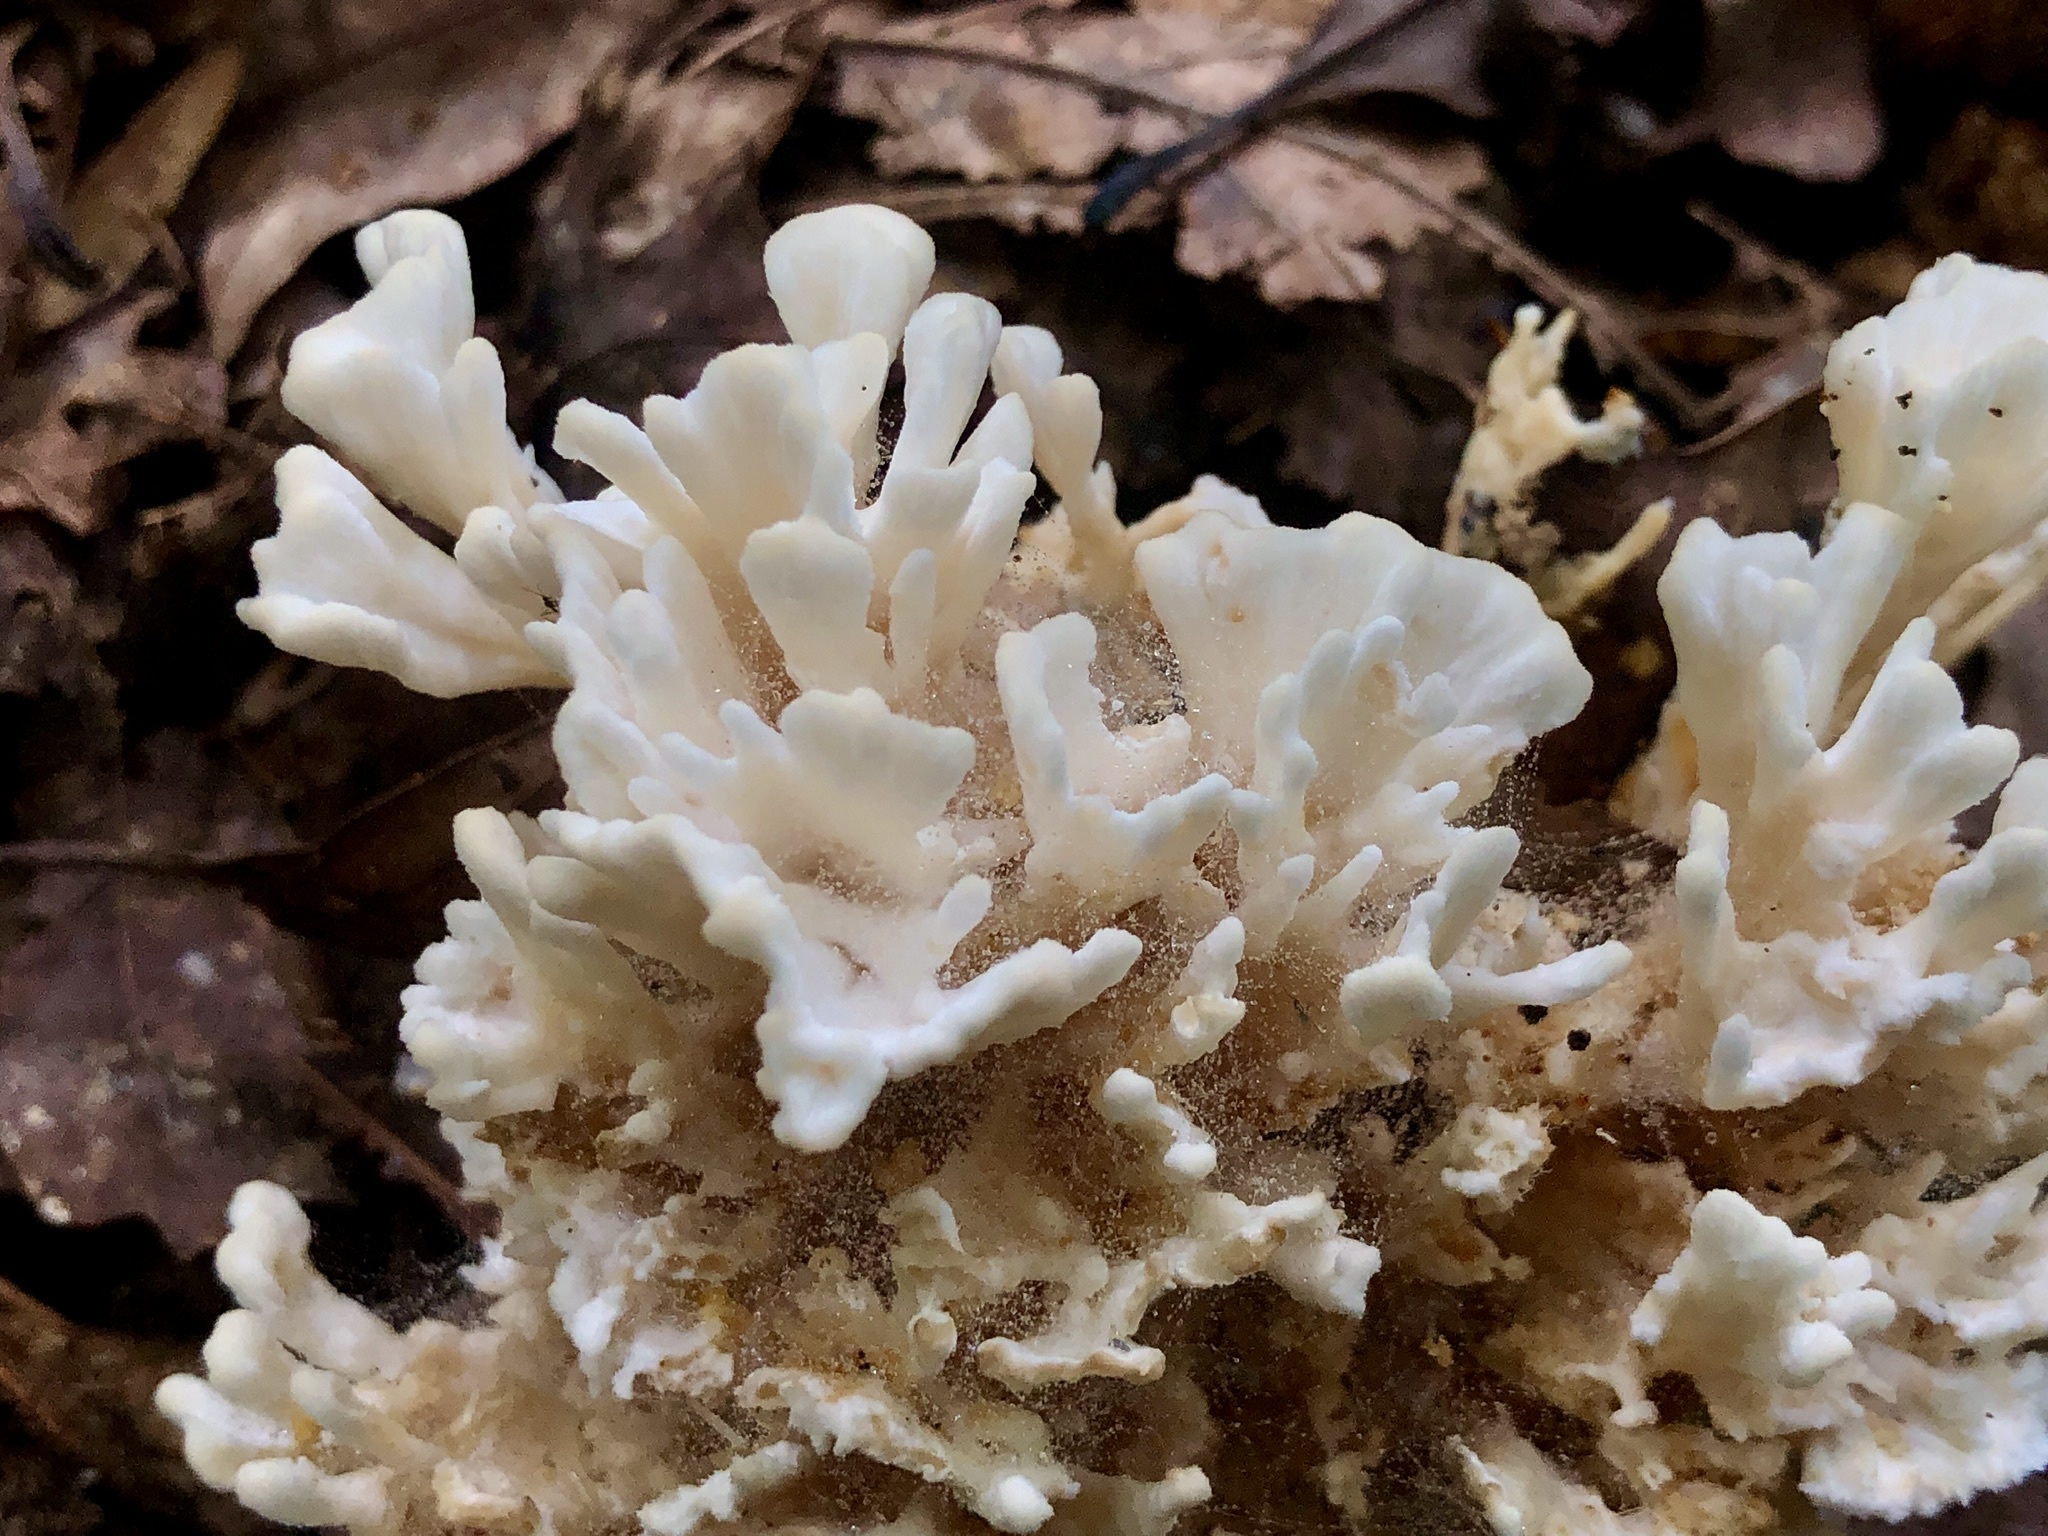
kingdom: Fungi
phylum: Basidiomycota
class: Agaricomycetes
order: Sebacinales
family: Sebacinaceae
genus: Sebacina
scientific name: Sebacina schweinitzii
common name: Jellied false coral fungus
